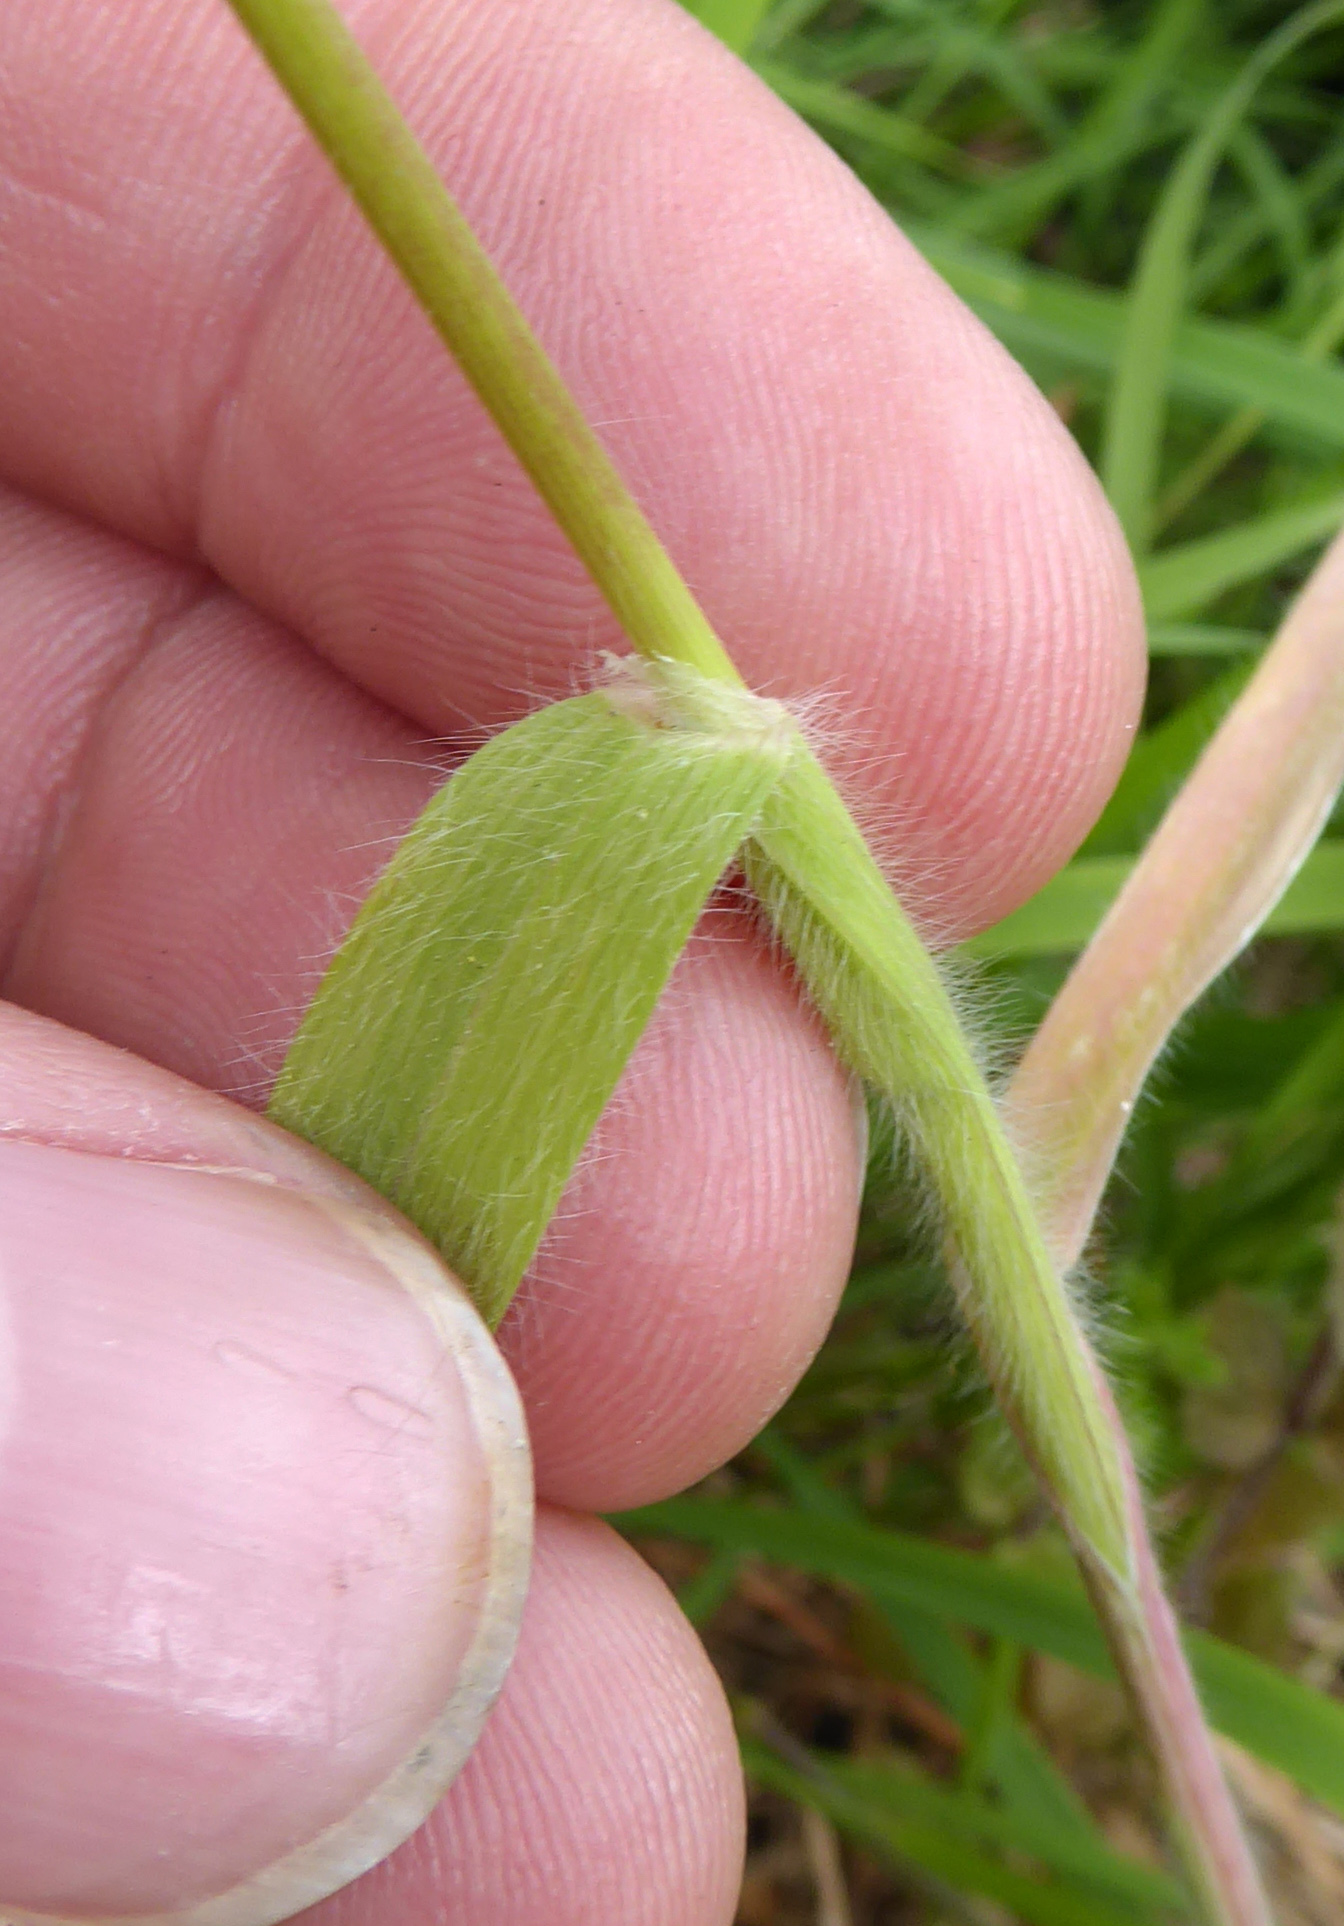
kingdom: Plantae
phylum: Tracheophyta
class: Liliopsida
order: Poales
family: Poaceae
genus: Bromus
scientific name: Bromus arenarius
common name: Australian brome
